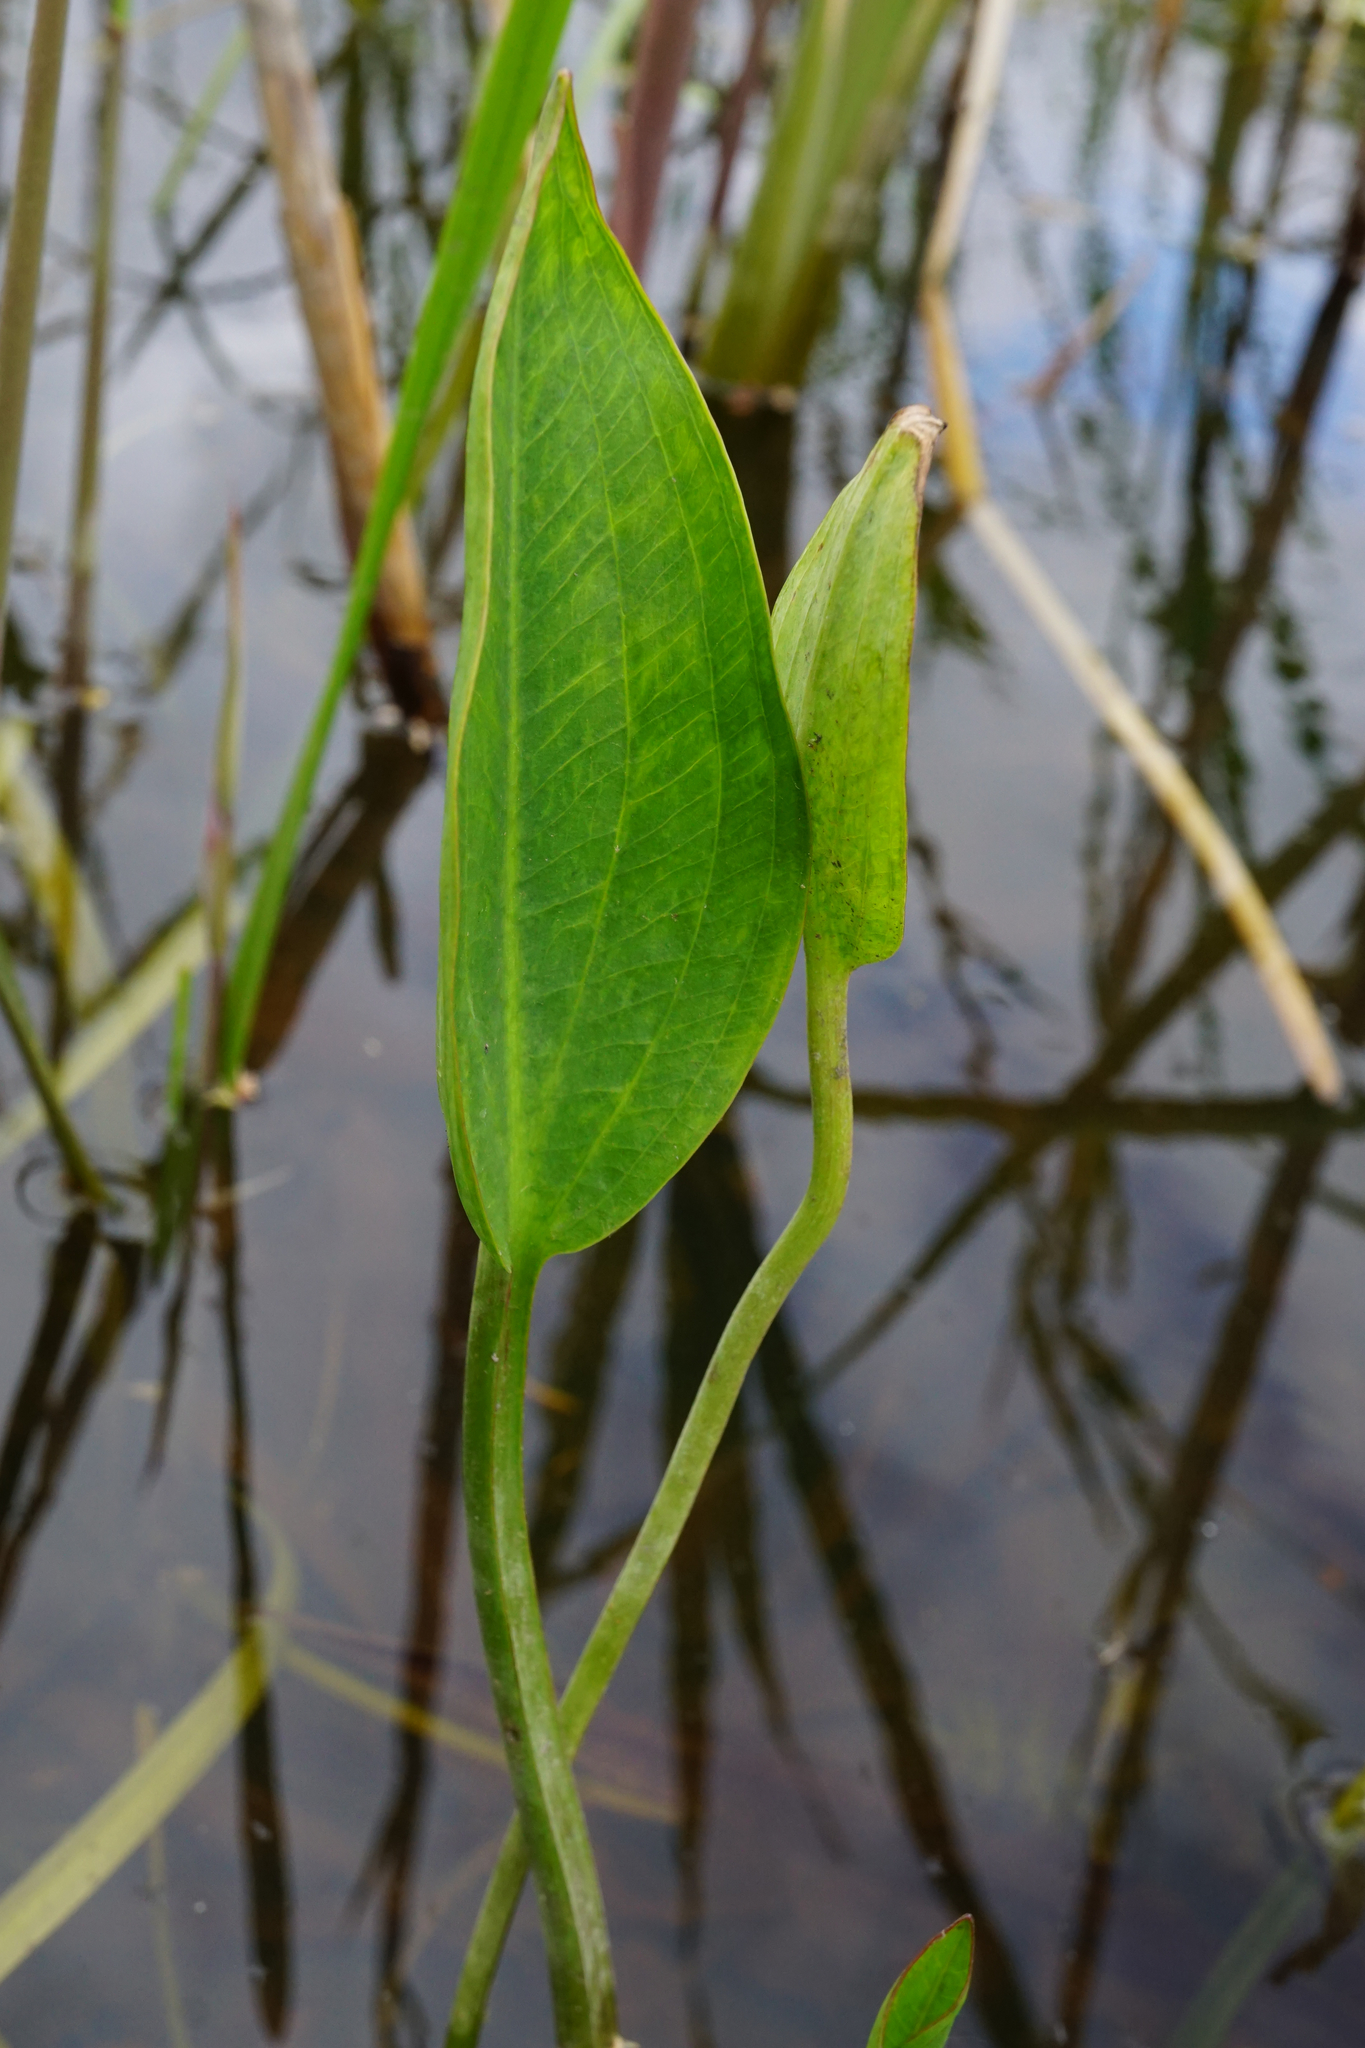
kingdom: Plantae
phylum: Tracheophyta
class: Liliopsida
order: Alismatales
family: Alismataceae
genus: Alisma
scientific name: Alisma lanceolatum
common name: Narrow-leaved water-plantain
